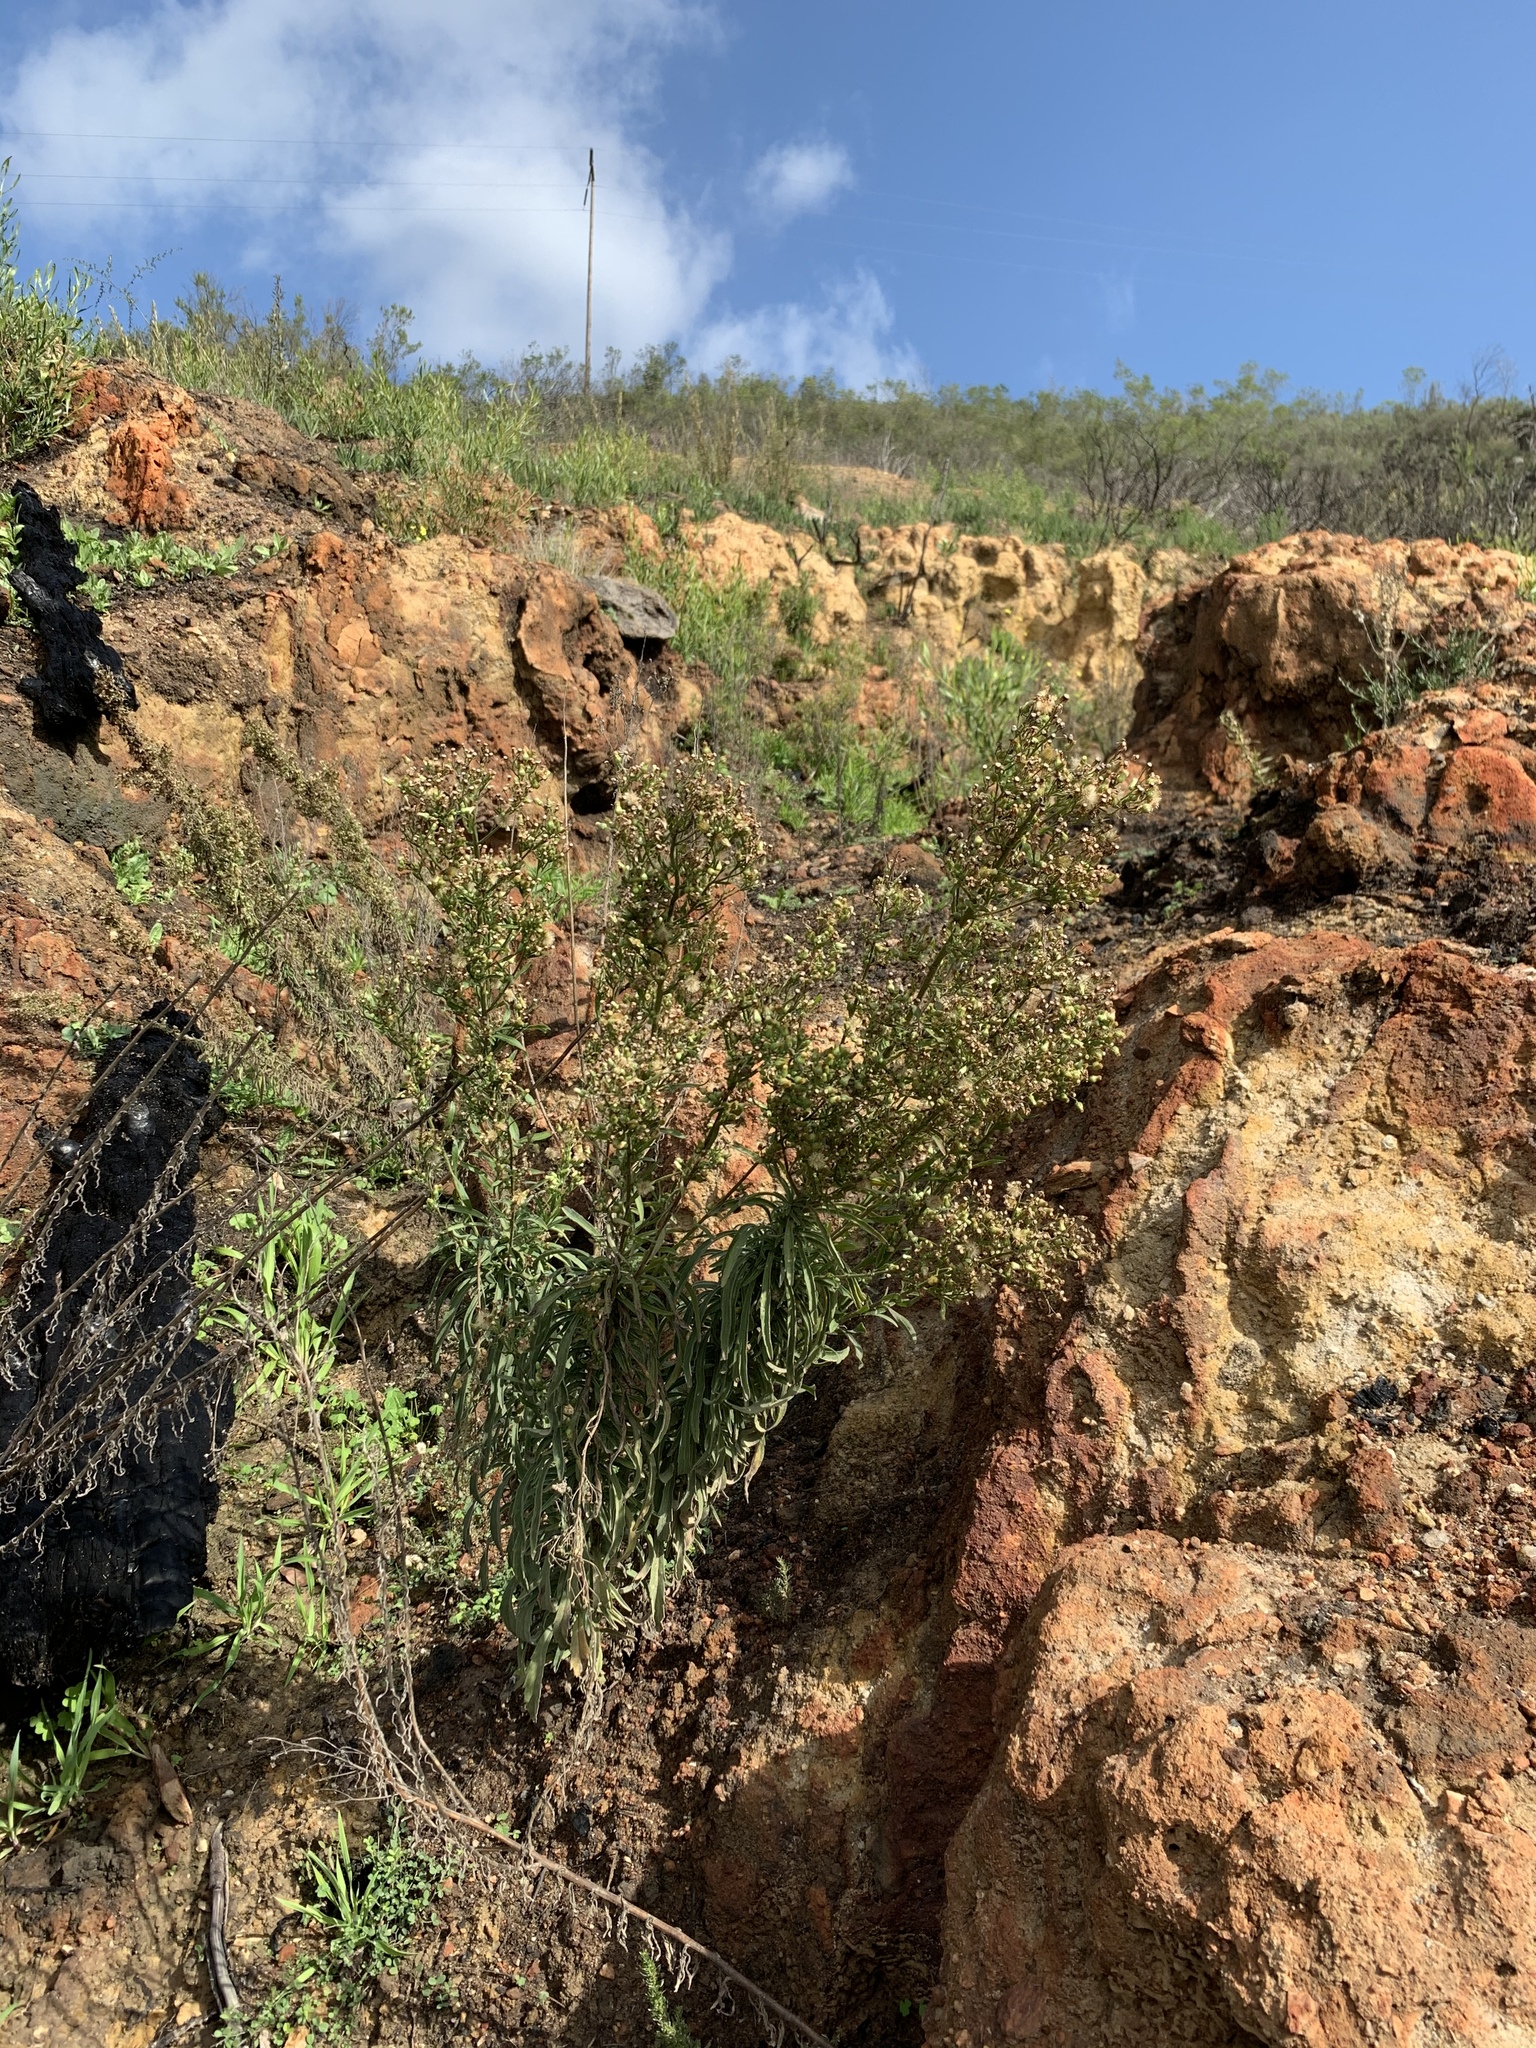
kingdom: Plantae
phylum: Tracheophyta
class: Magnoliopsida
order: Asterales
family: Asteraceae
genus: Erigeron
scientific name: Erigeron sumatrensis
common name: Daisy
